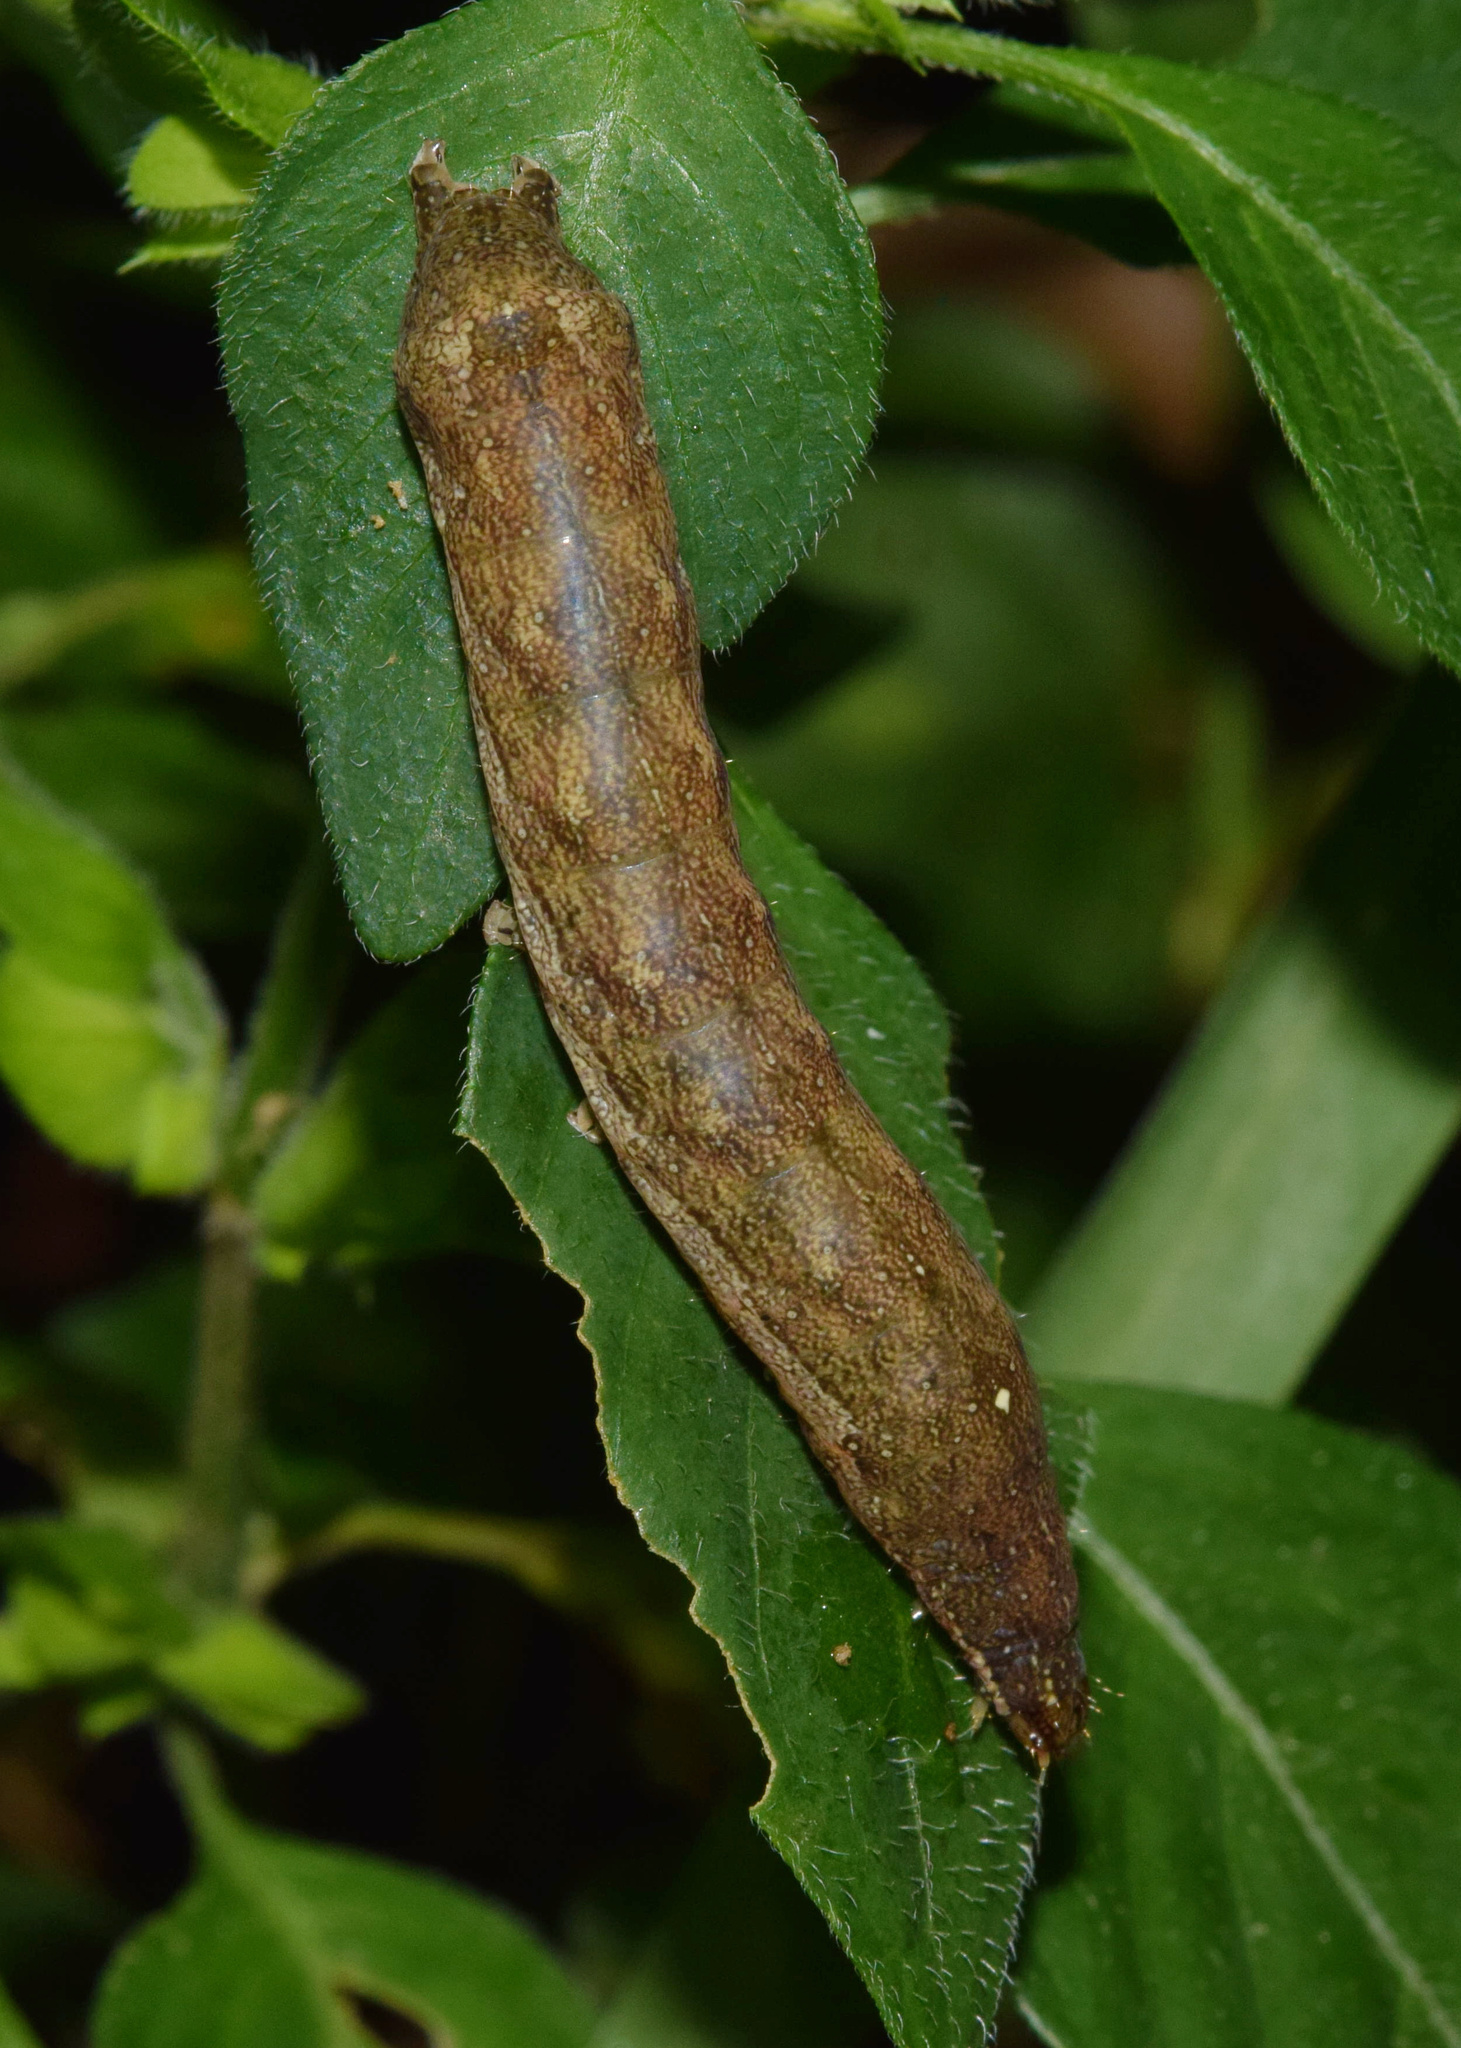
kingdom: Plantae
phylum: Tracheophyta
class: Magnoliopsida
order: Lamiales
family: Acanthaceae
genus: Asystasia
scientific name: Asystasia intrusa
